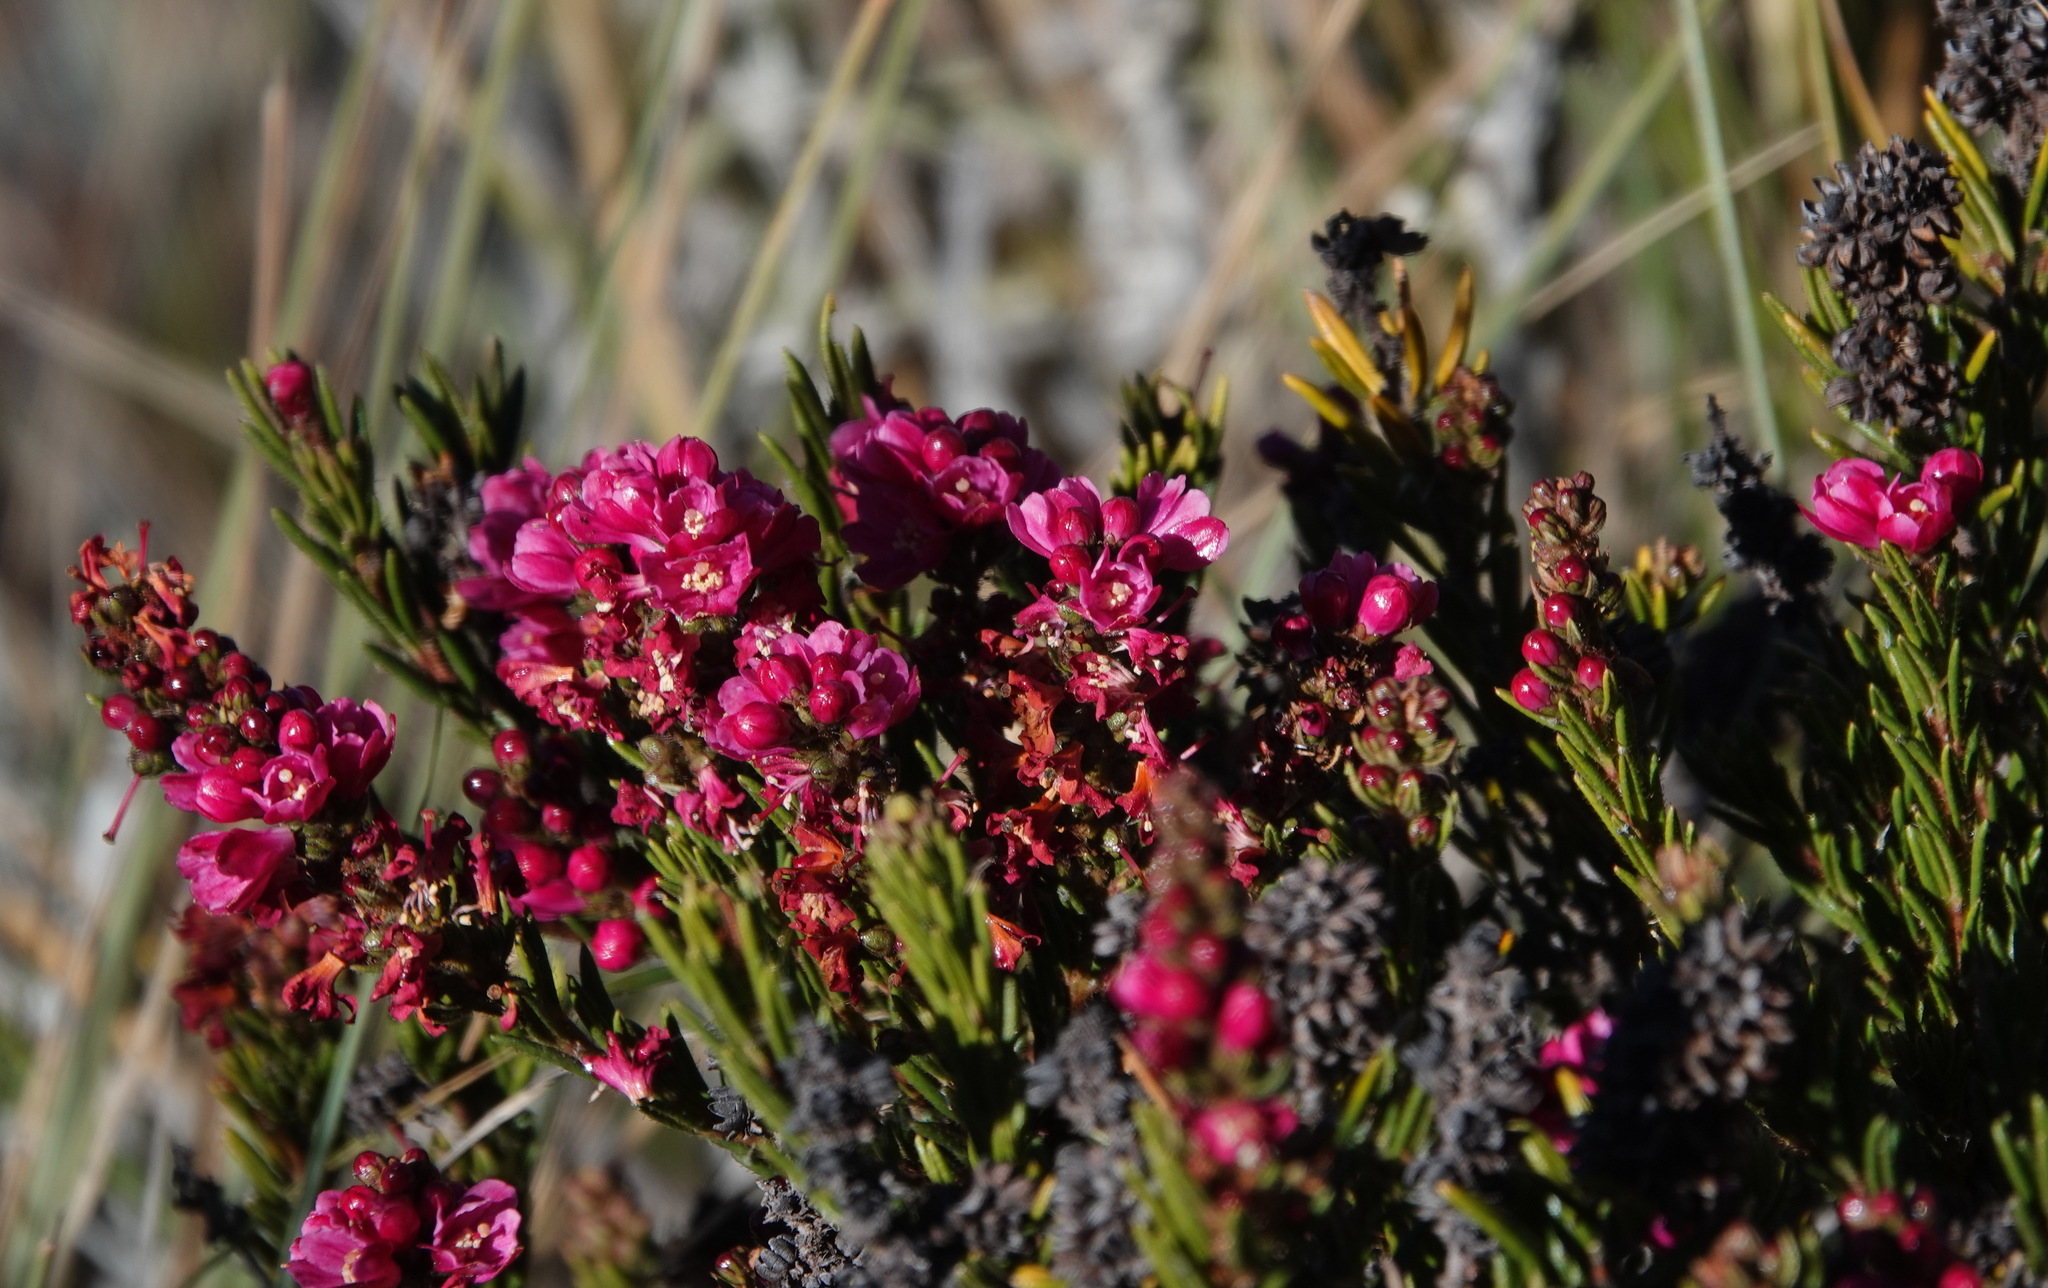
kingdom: Plantae
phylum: Tracheophyta
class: Magnoliopsida
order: Ericales
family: Ericaceae
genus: Bejaria
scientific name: Bejaria nana
